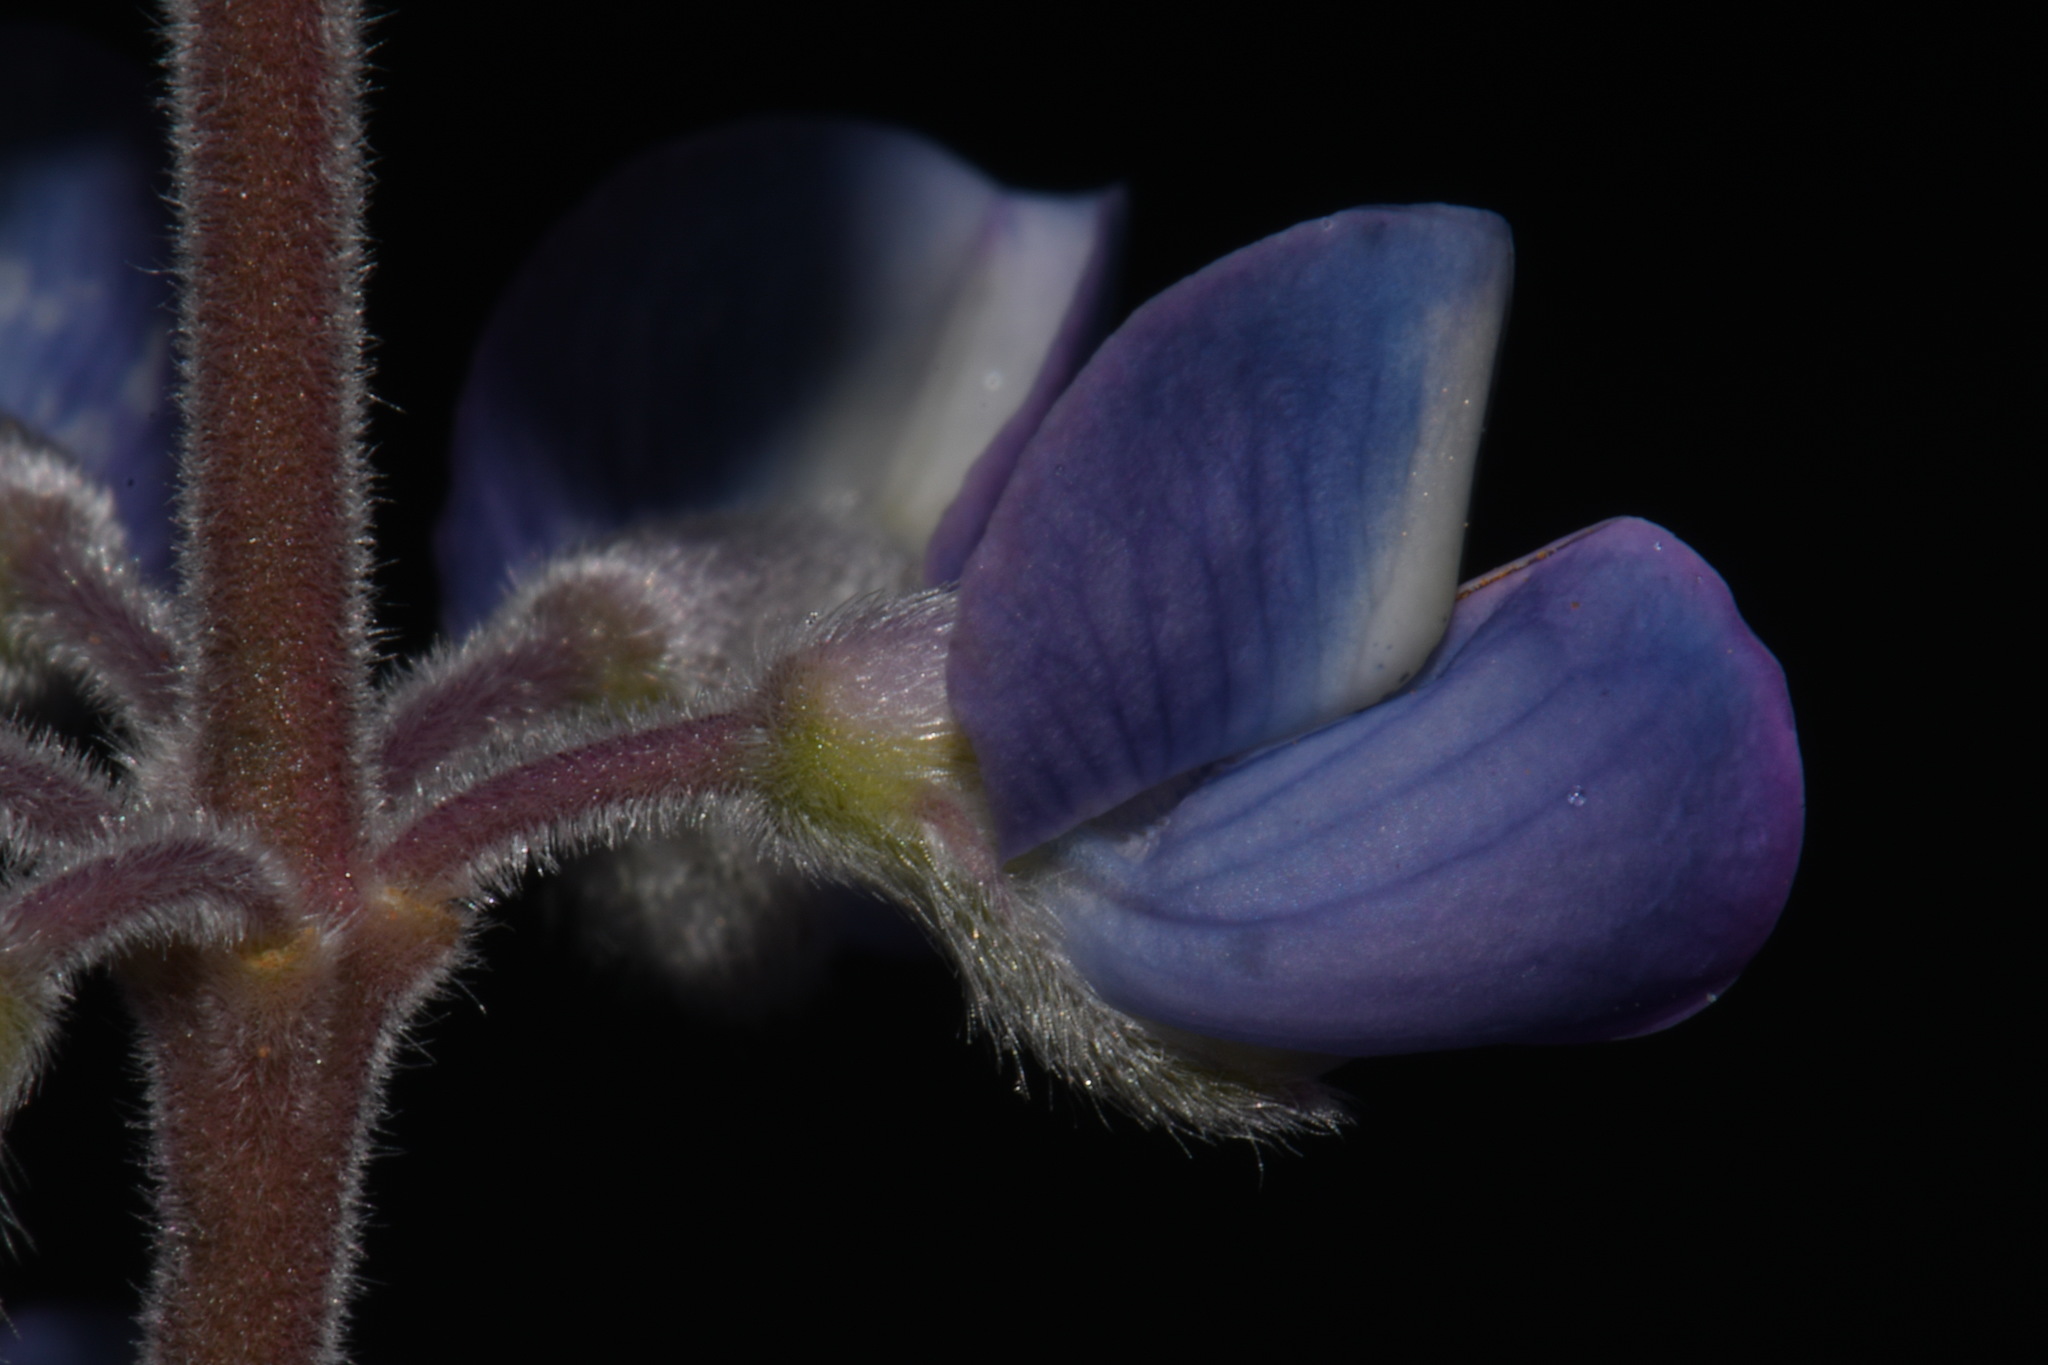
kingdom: Plantae
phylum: Tracheophyta
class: Magnoliopsida
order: Fabales
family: Fabaceae
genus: Lupinus
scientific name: Lupinus argenteus
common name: Silvery lupine
